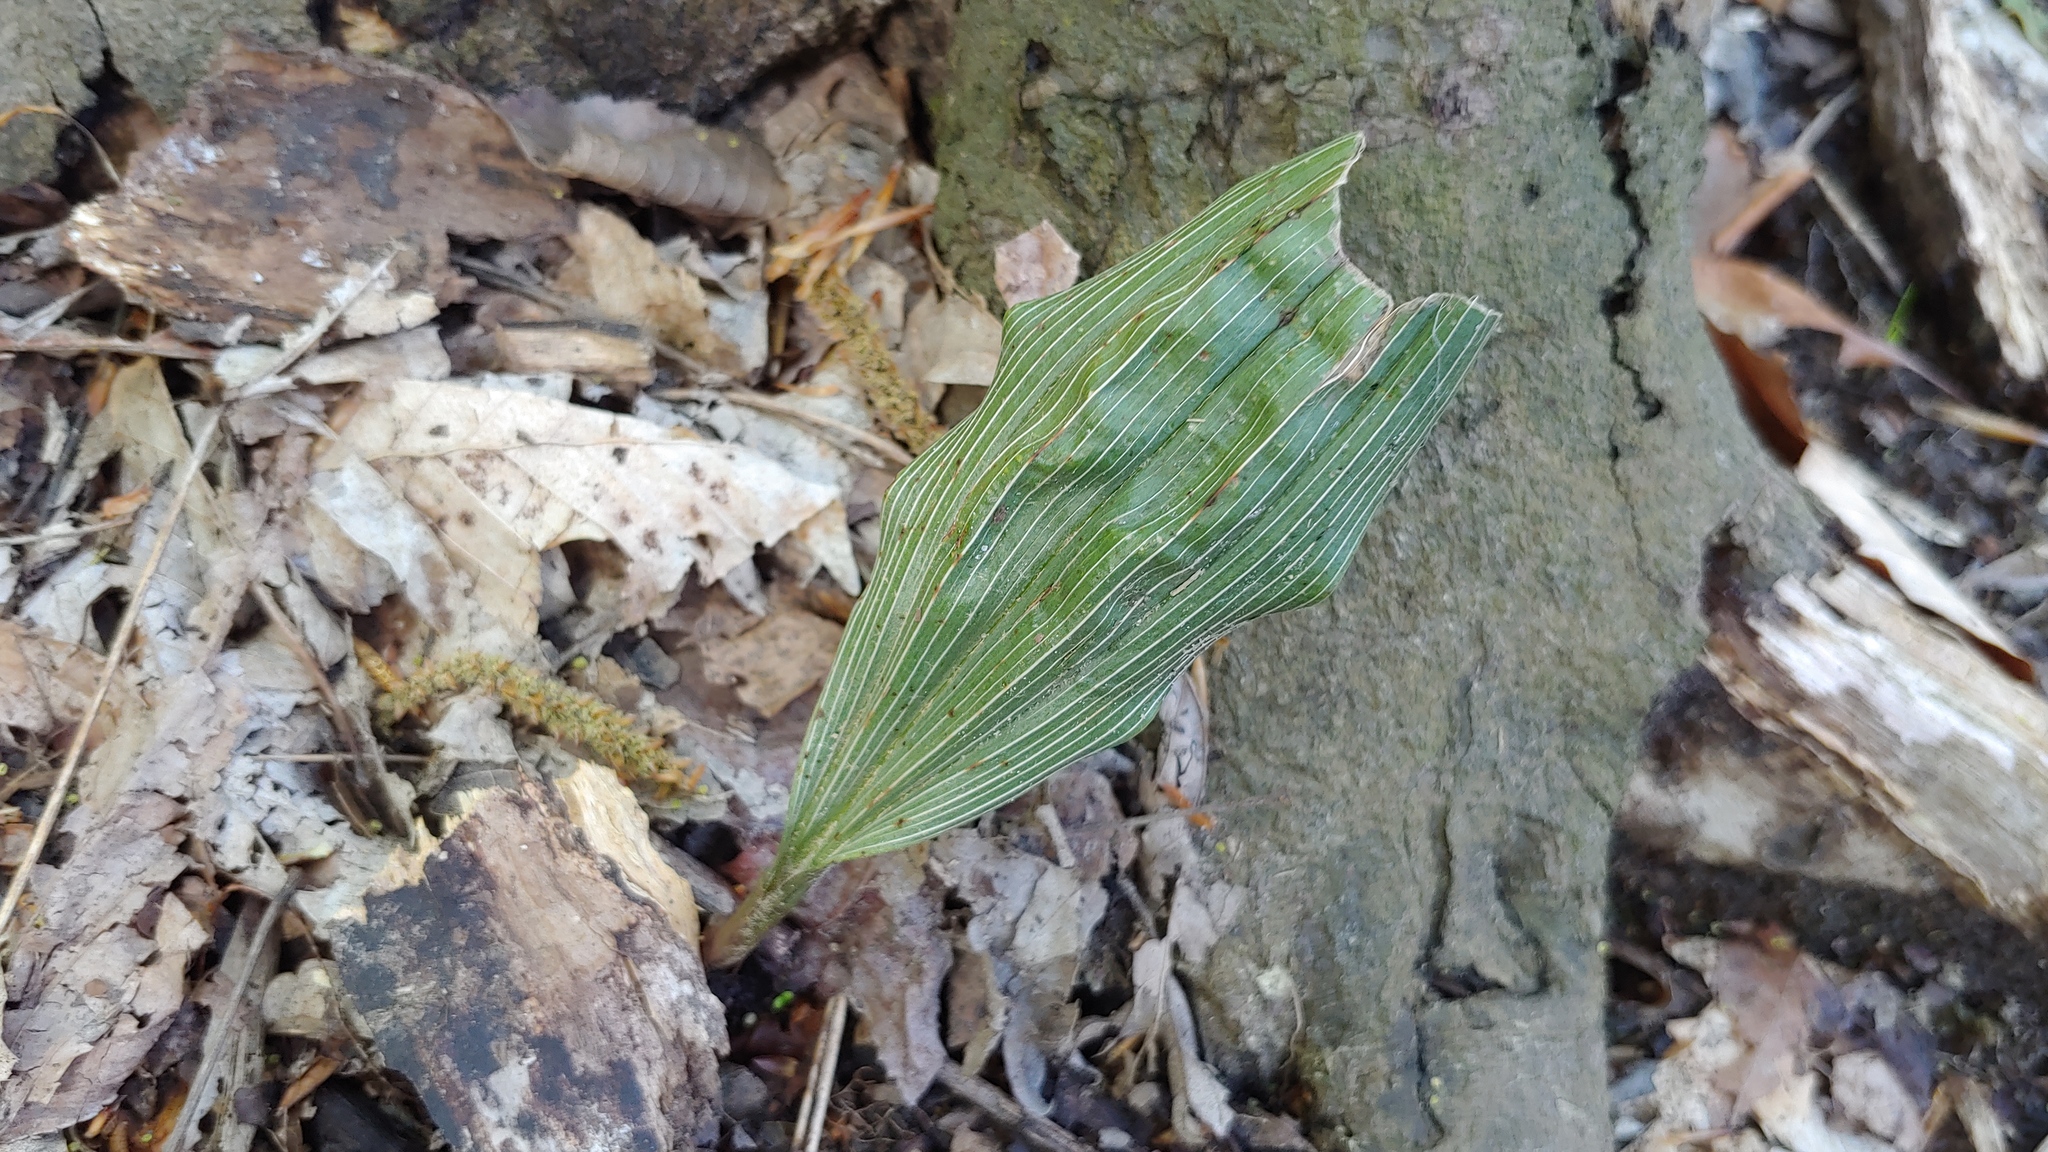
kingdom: Plantae
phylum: Tracheophyta
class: Liliopsida
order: Asparagales
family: Orchidaceae
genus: Aplectrum
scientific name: Aplectrum hyemale
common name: Adam-and-eve
